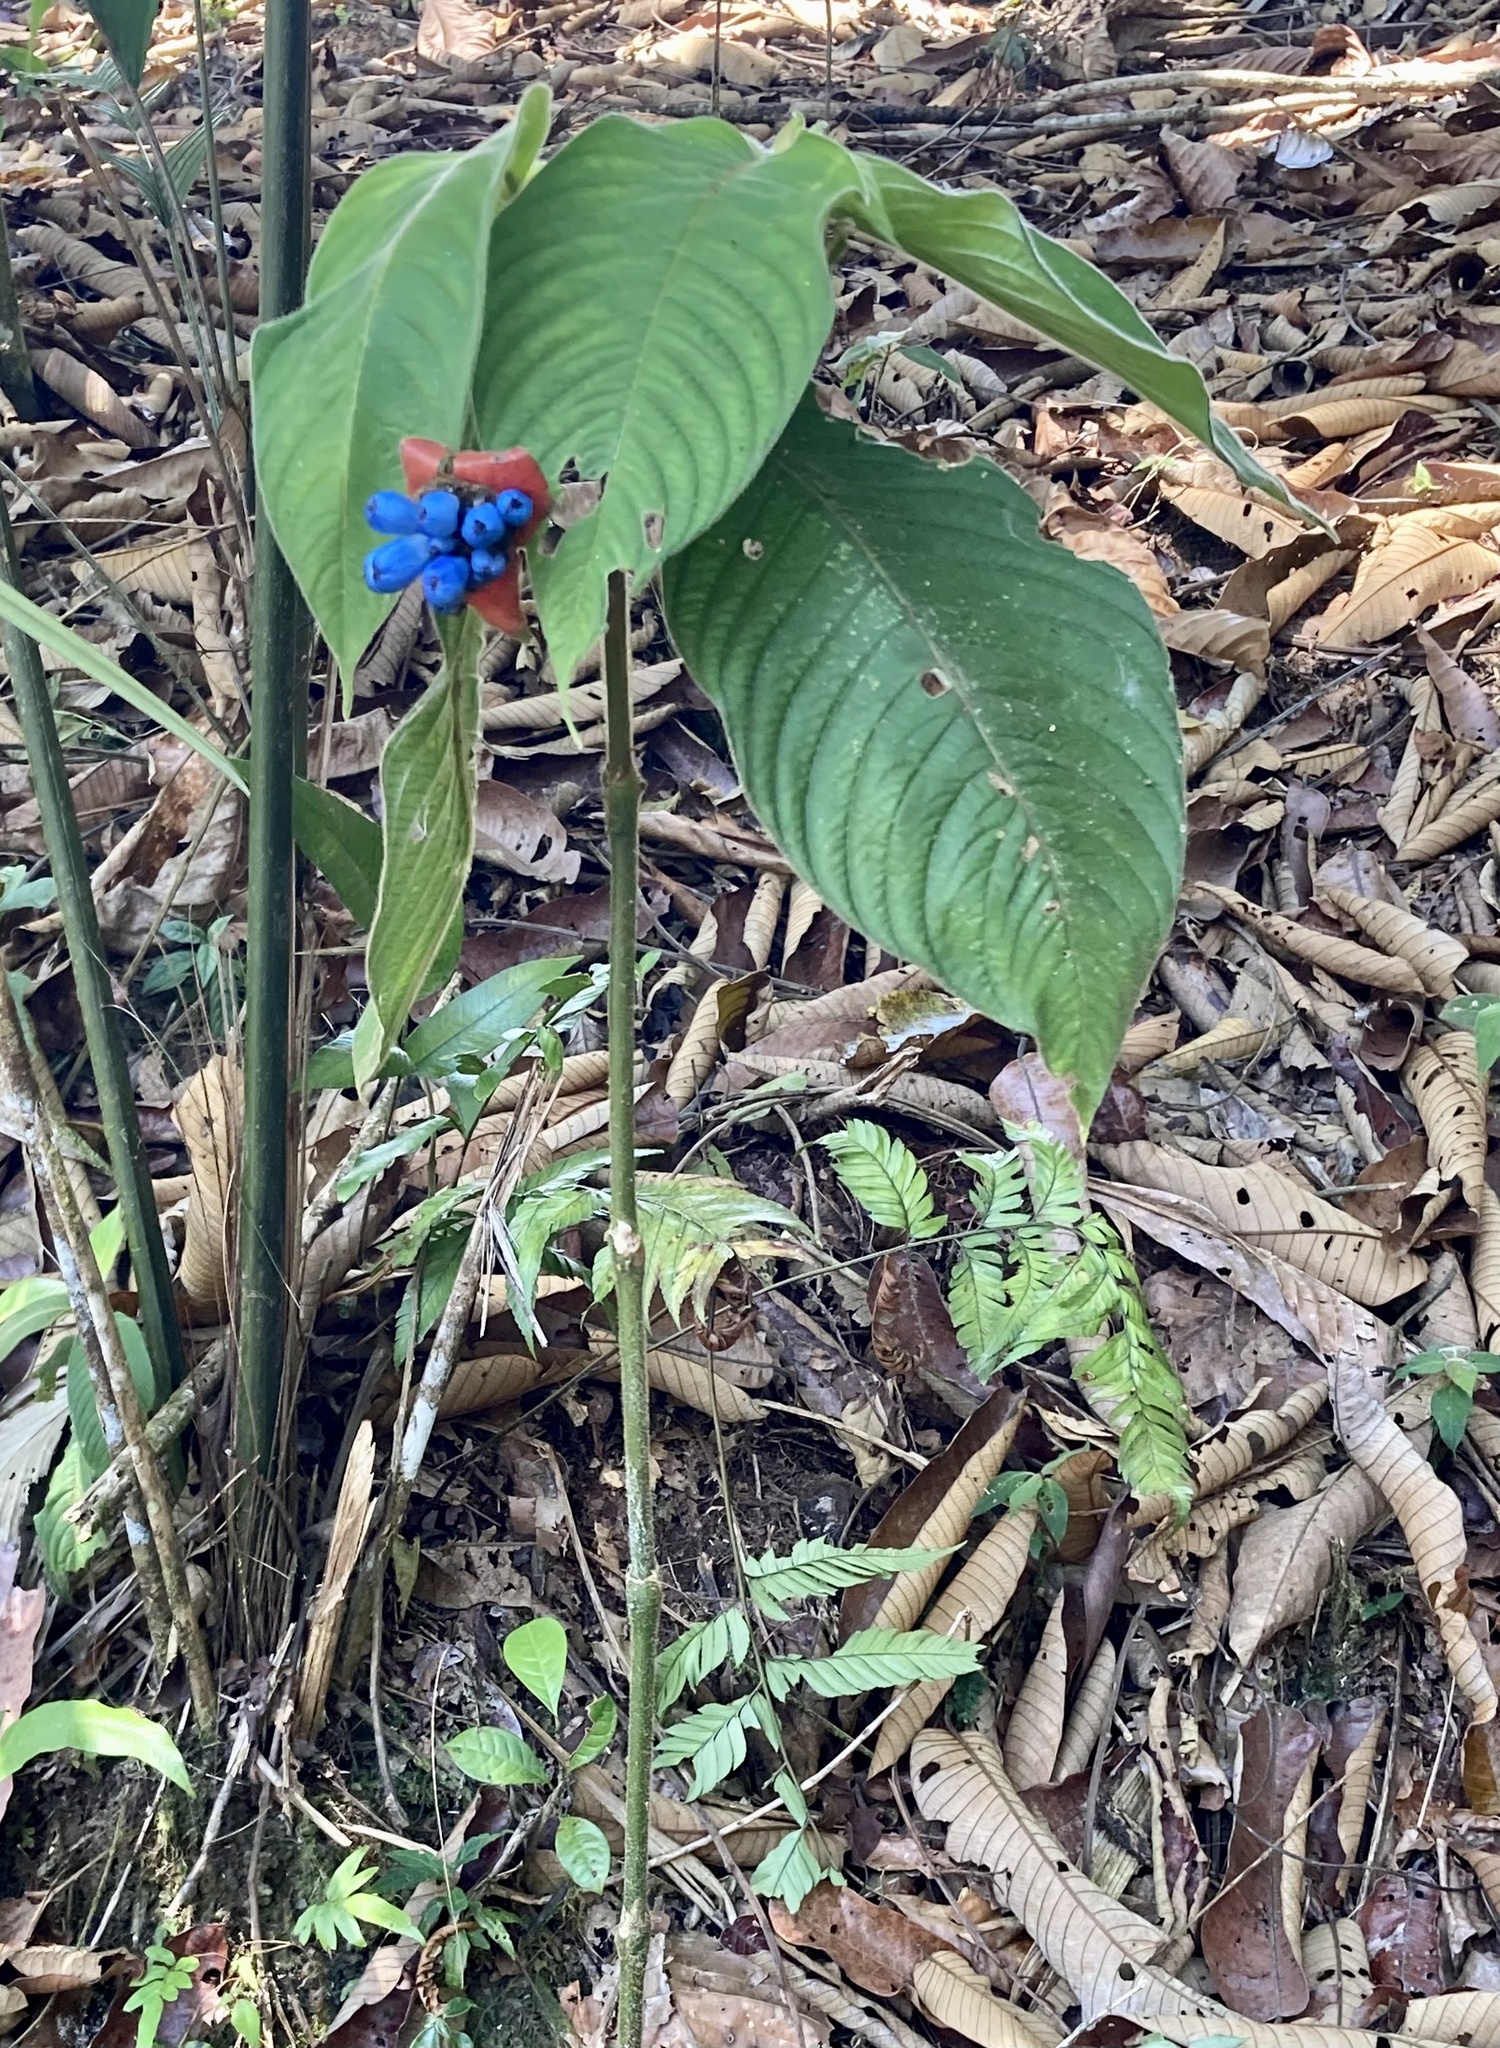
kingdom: Plantae
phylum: Tracheophyta
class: Magnoliopsida
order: Gentianales
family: Rubiaceae
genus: Palicourea
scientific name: Palicourea tomentosa
